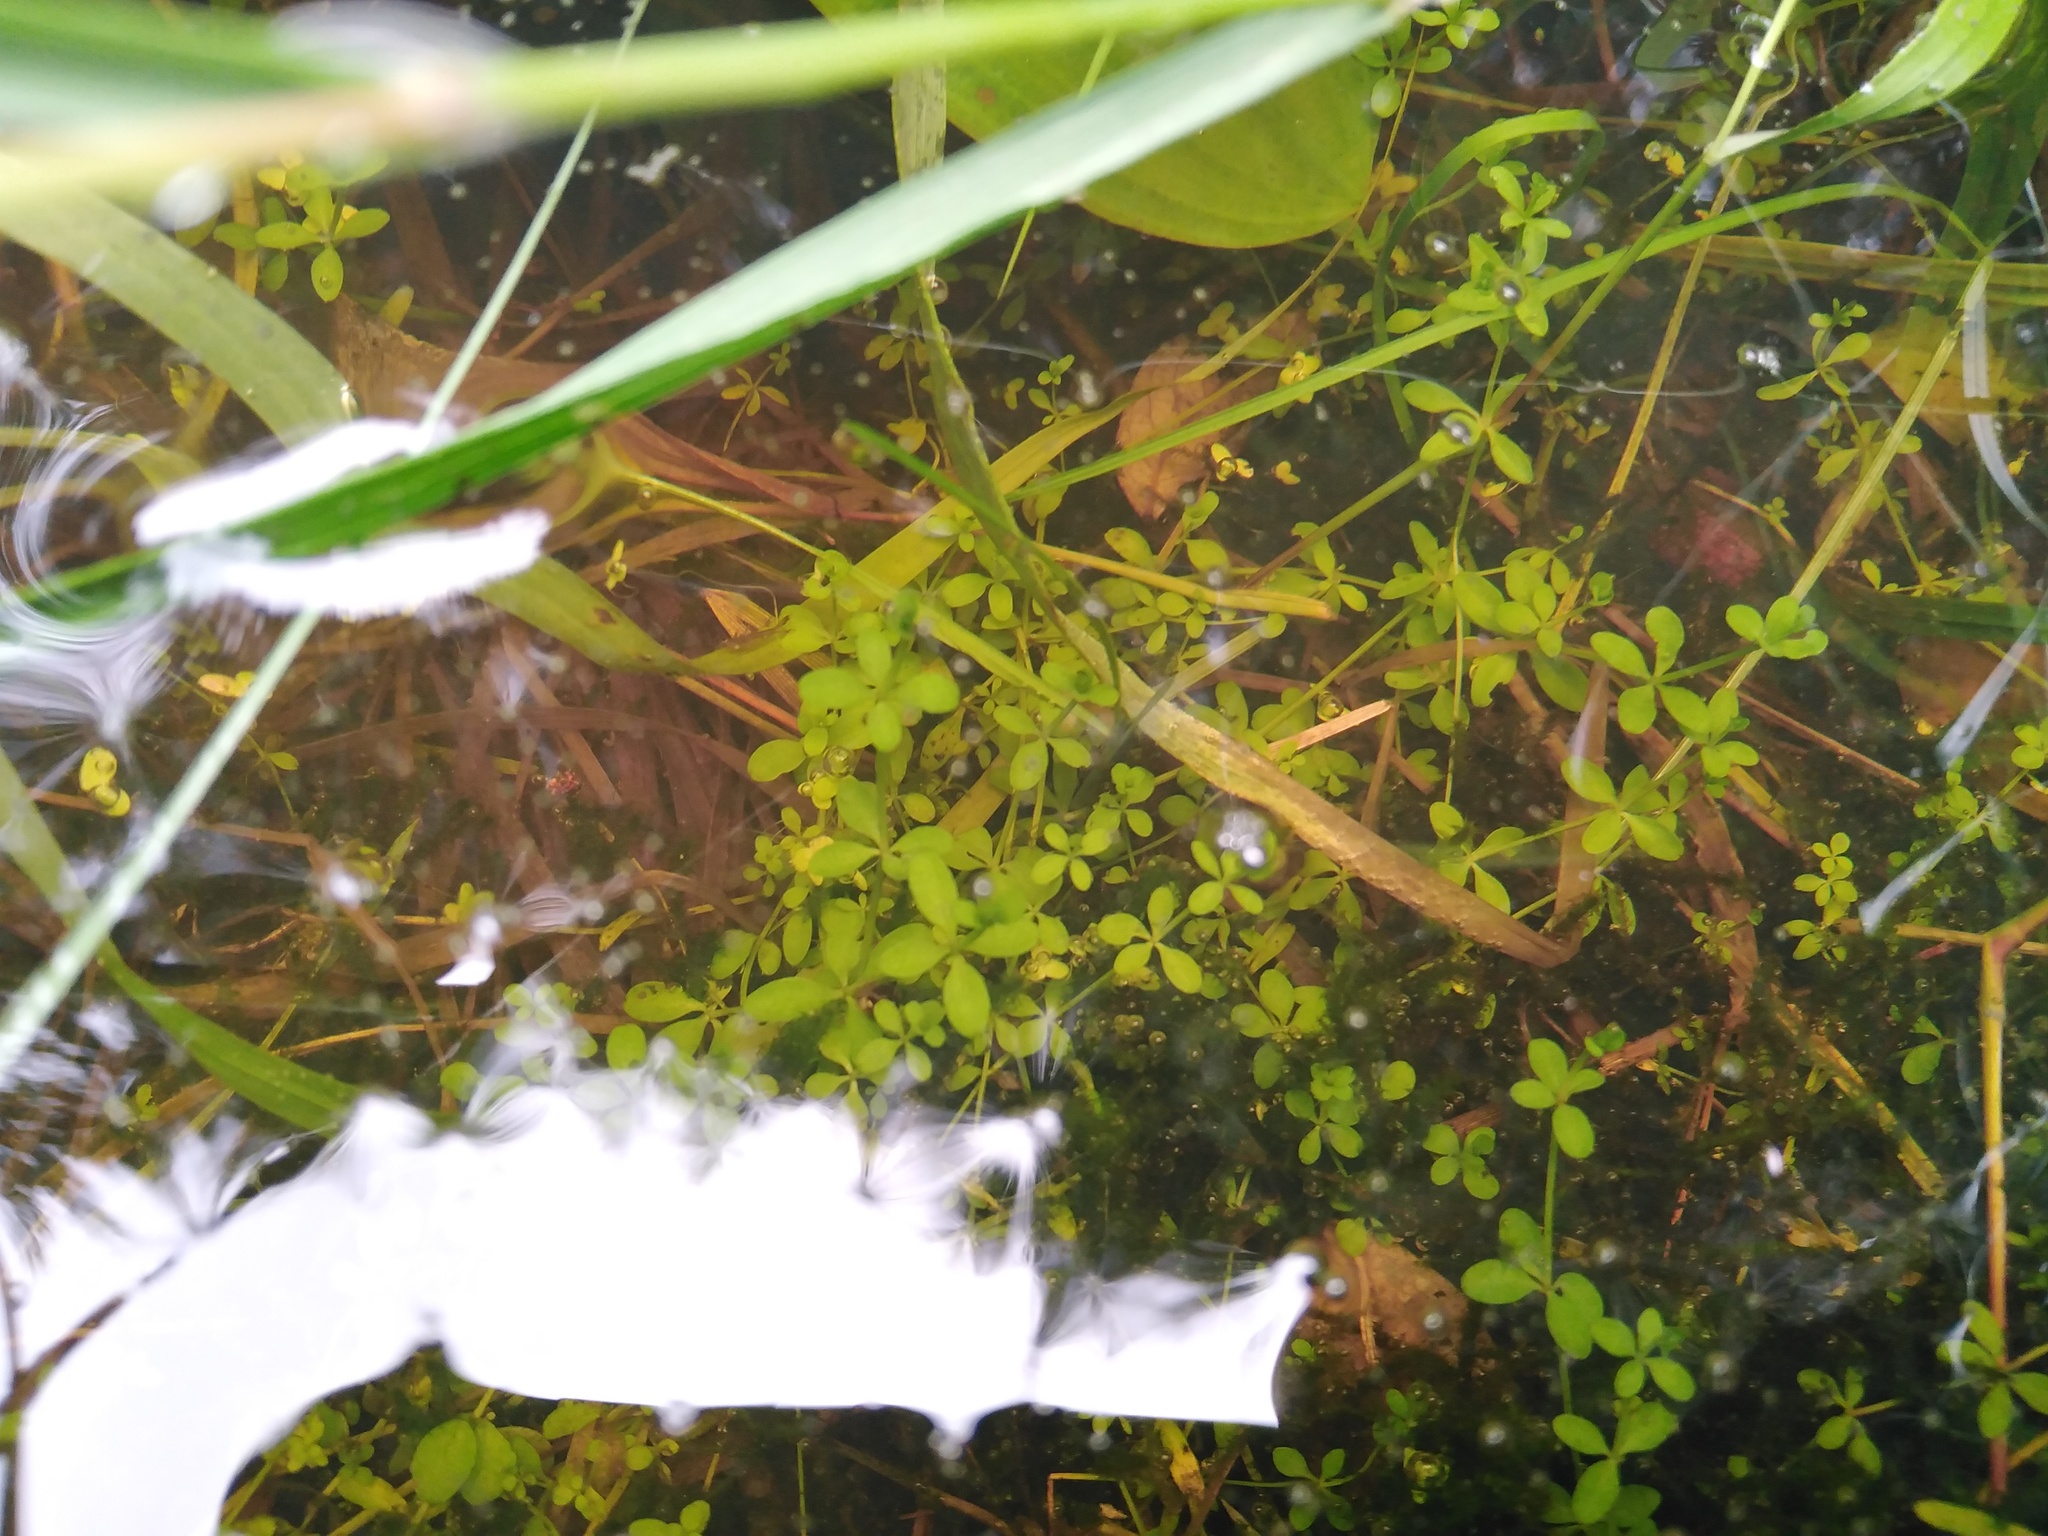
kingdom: Plantae
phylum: Tracheophyta
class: Magnoliopsida
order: Gentianales
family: Rubiaceae
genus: Galium
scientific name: Galium palustre
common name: Common marsh-bedstraw
